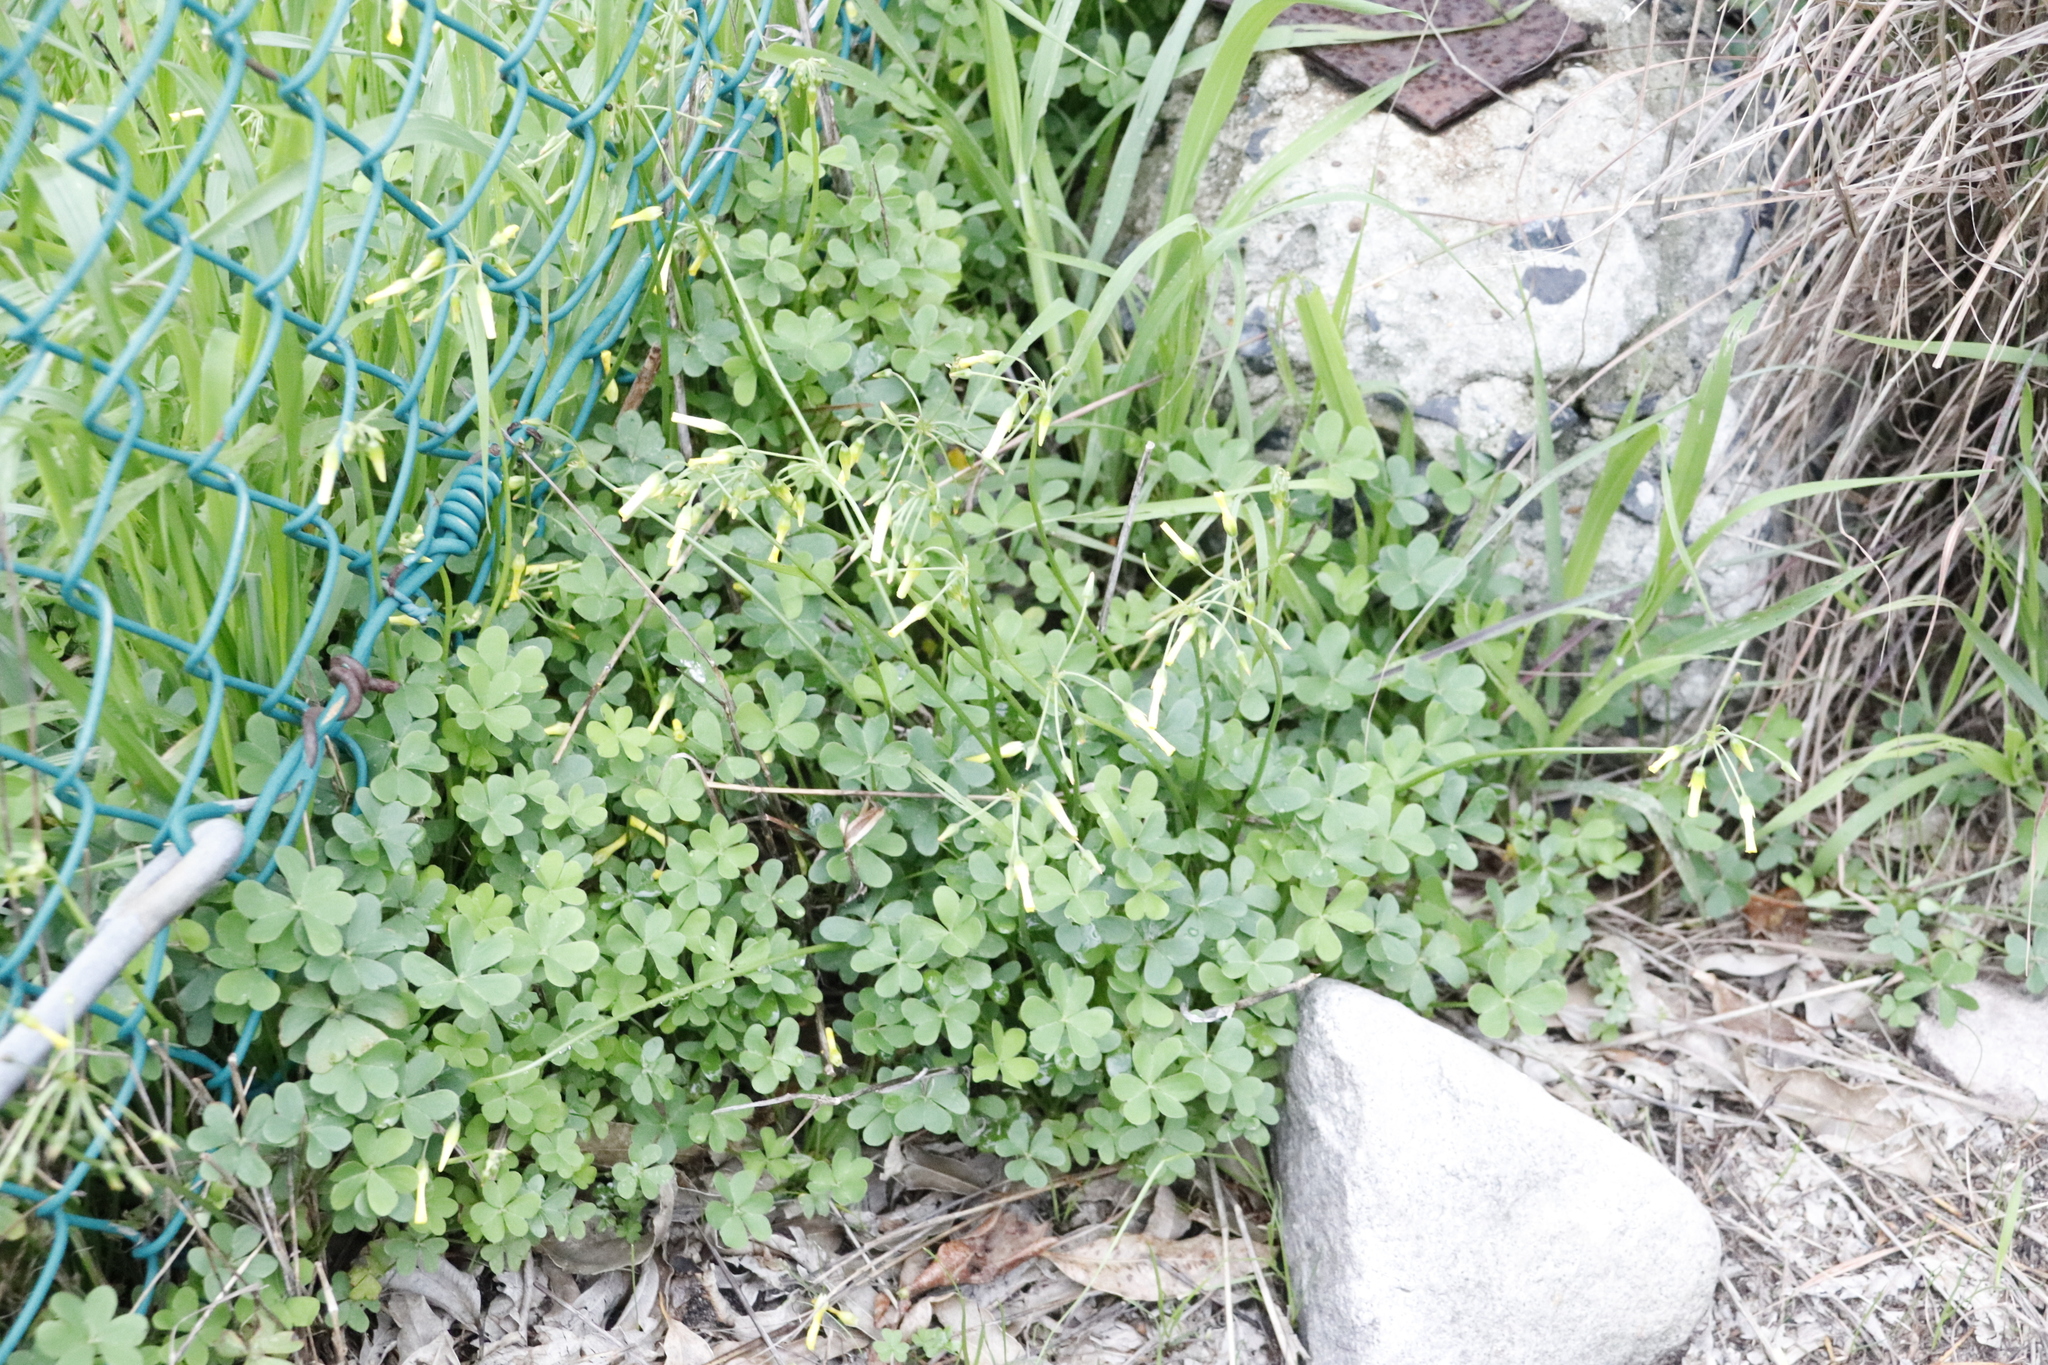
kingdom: Plantae
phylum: Tracheophyta
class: Magnoliopsida
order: Oxalidales
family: Oxalidaceae
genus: Oxalis
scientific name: Oxalis pes-caprae
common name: Bermuda-buttercup
